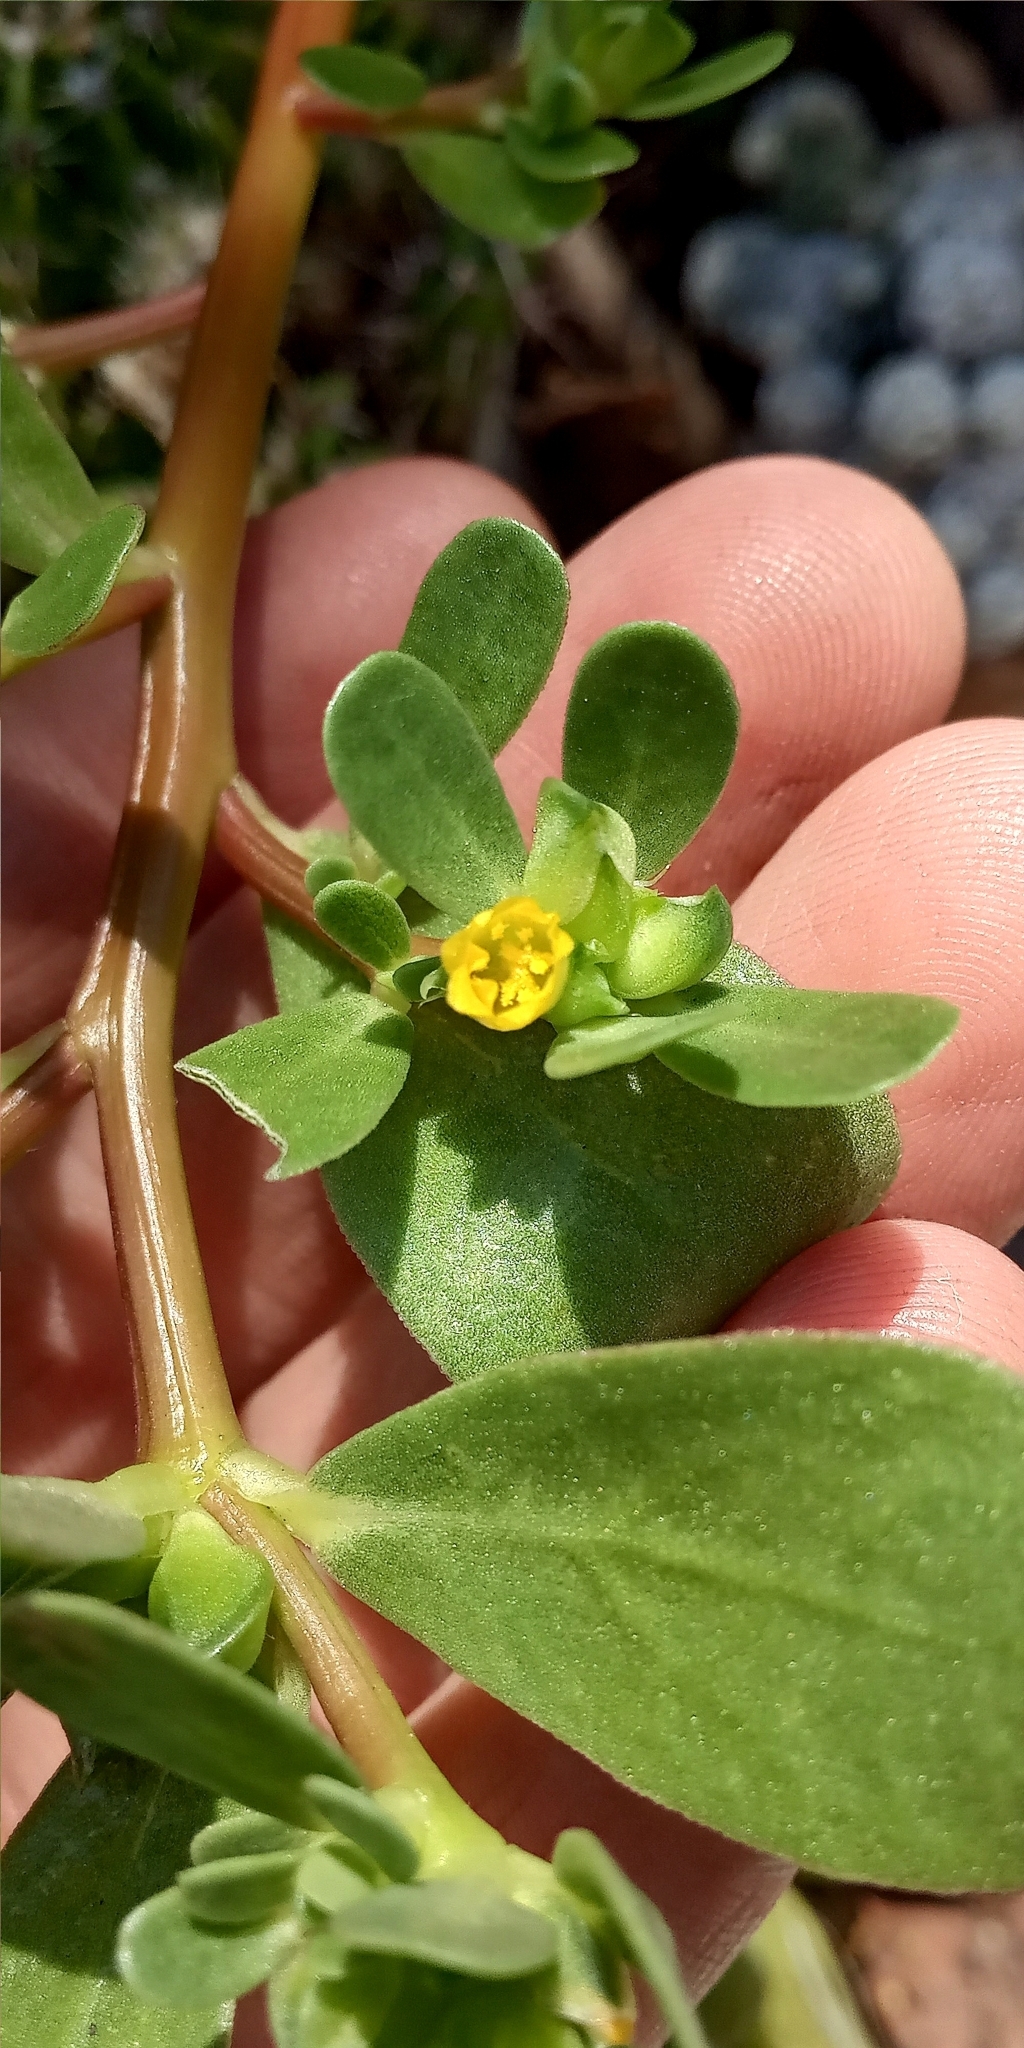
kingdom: Plantae
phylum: Tracheophyta
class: Magnoliopsida
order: Caryophyllales
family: Portulacaceae
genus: Portulaca
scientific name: Portulaca oleracea
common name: Common purslane
